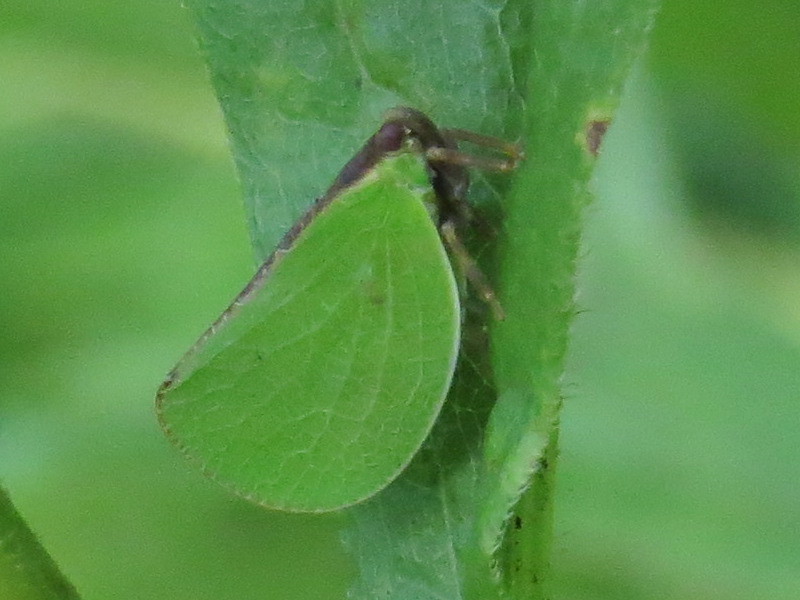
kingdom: Animalia
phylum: Arthropoda
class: Insecta
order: Hemiptera
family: Acanaloniidae
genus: Acanalonia
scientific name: Acanalonia bivittata
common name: Two-striped planthopper
